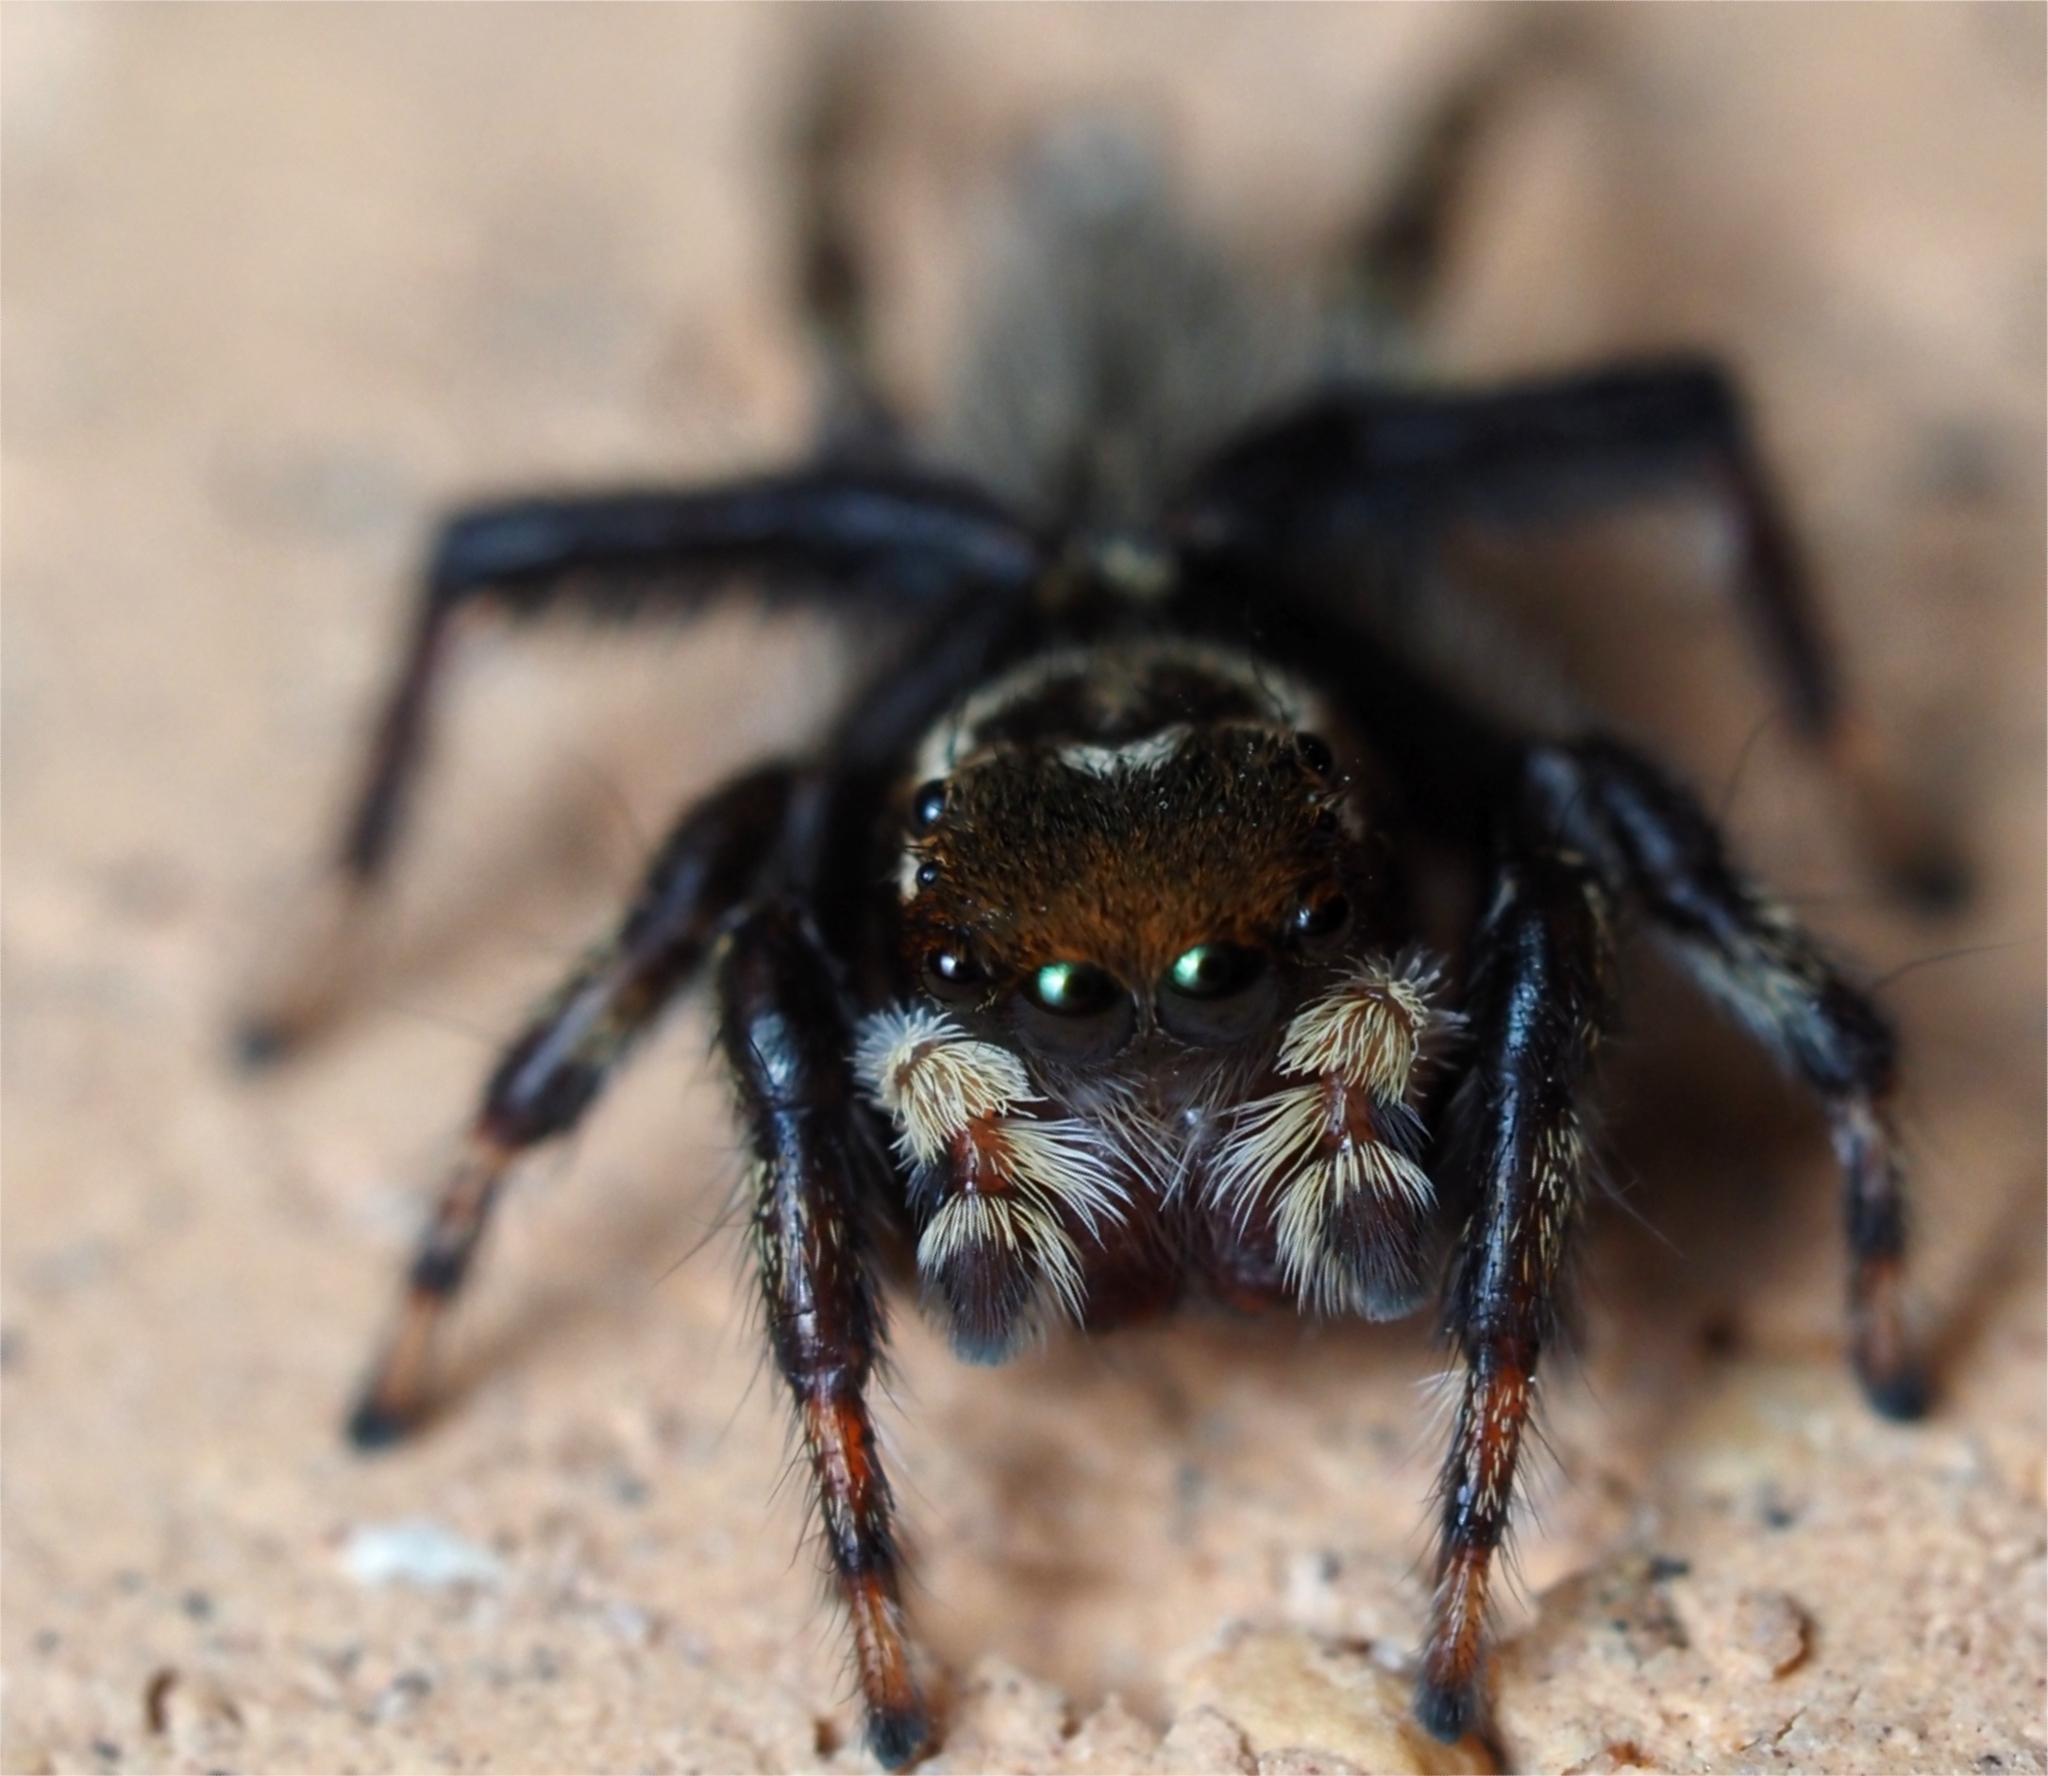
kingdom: Animalia
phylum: Arthropoda
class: Arachnida
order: Araneae
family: Salticidae
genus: Maratus
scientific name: Maratus griseus
